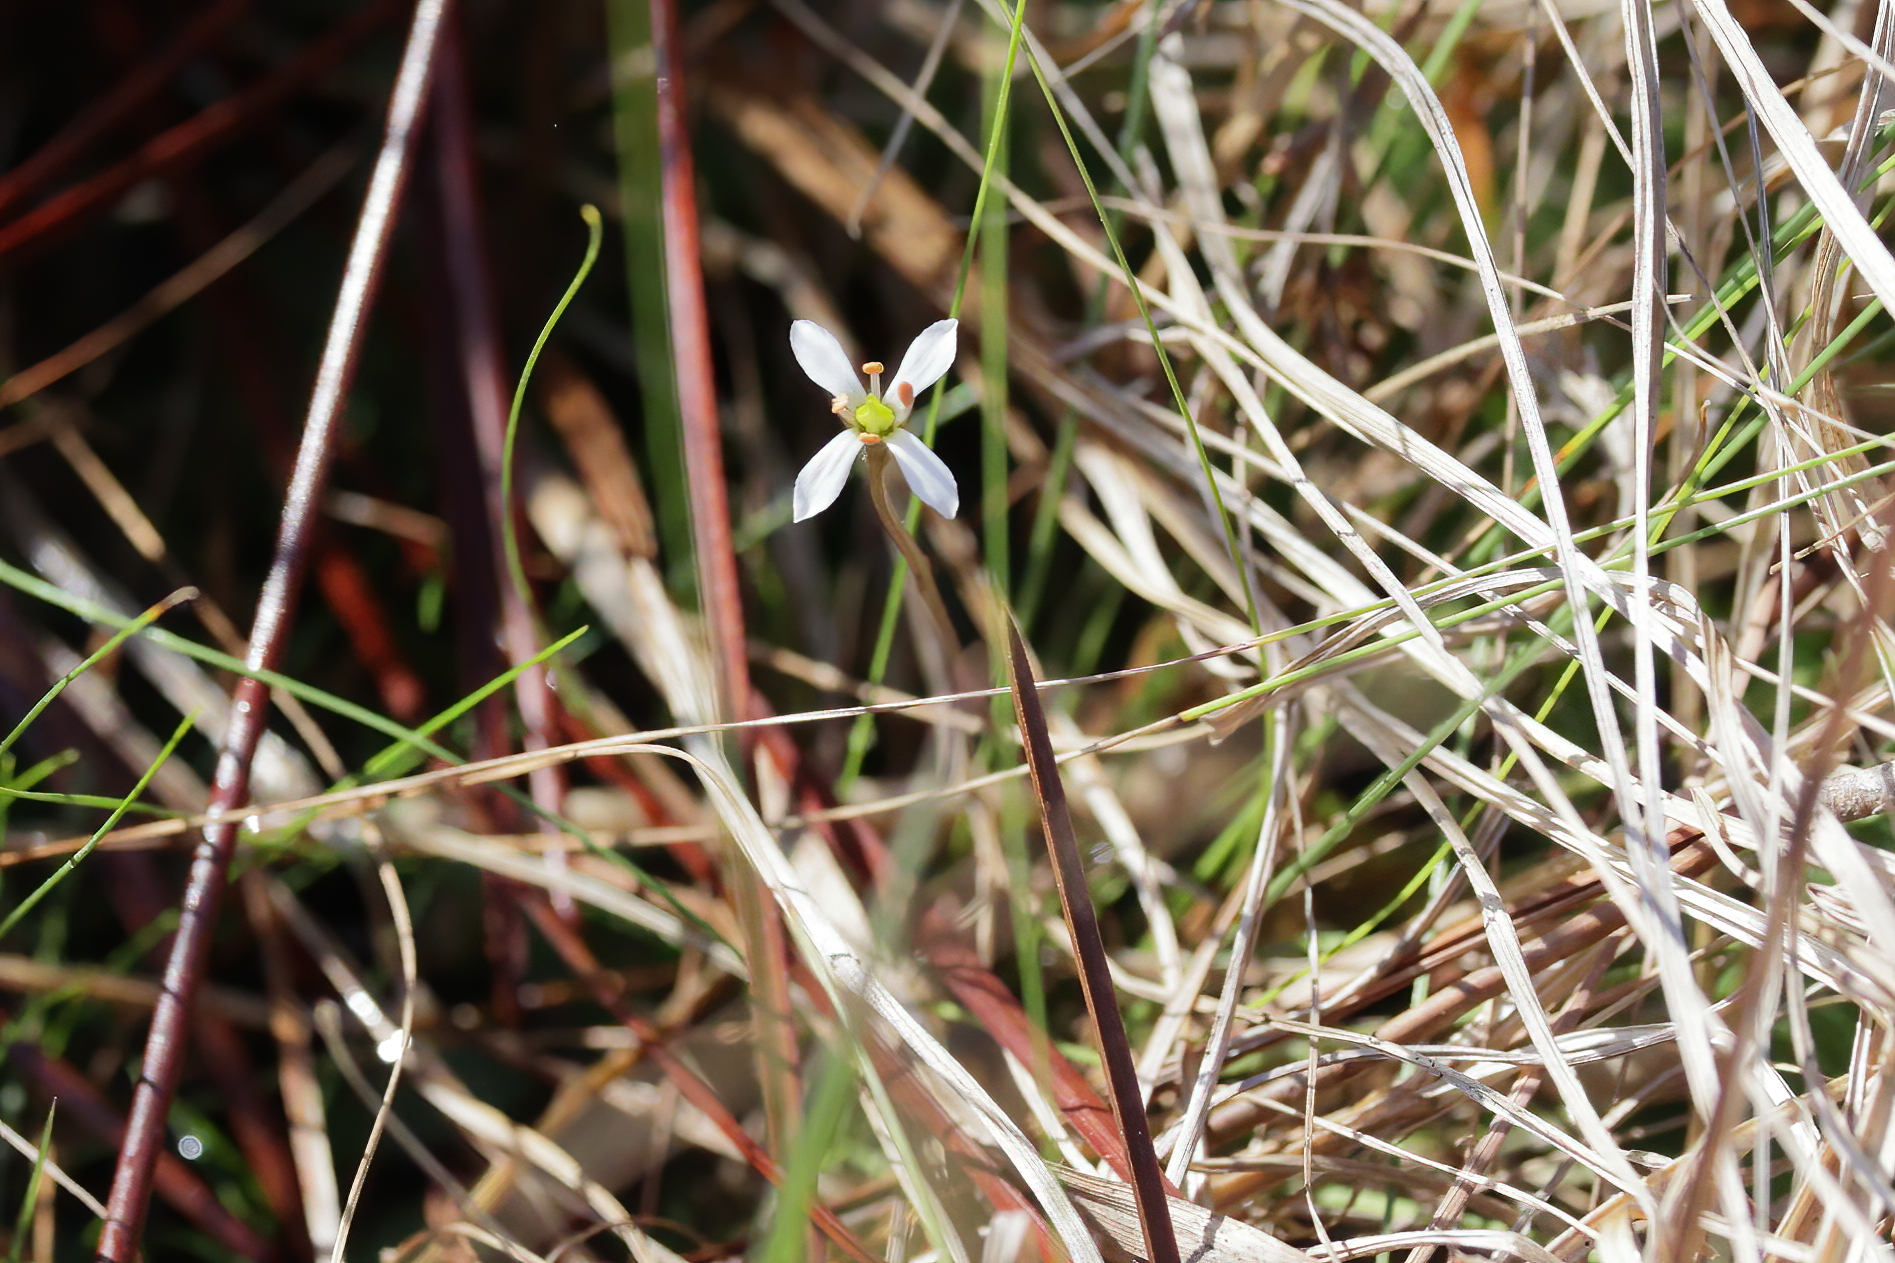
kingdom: Plantae
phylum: Tracheophyta
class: Magnoliopsida
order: Gentianales
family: Gentianaceae
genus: Bartonia
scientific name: Bartonia verna
